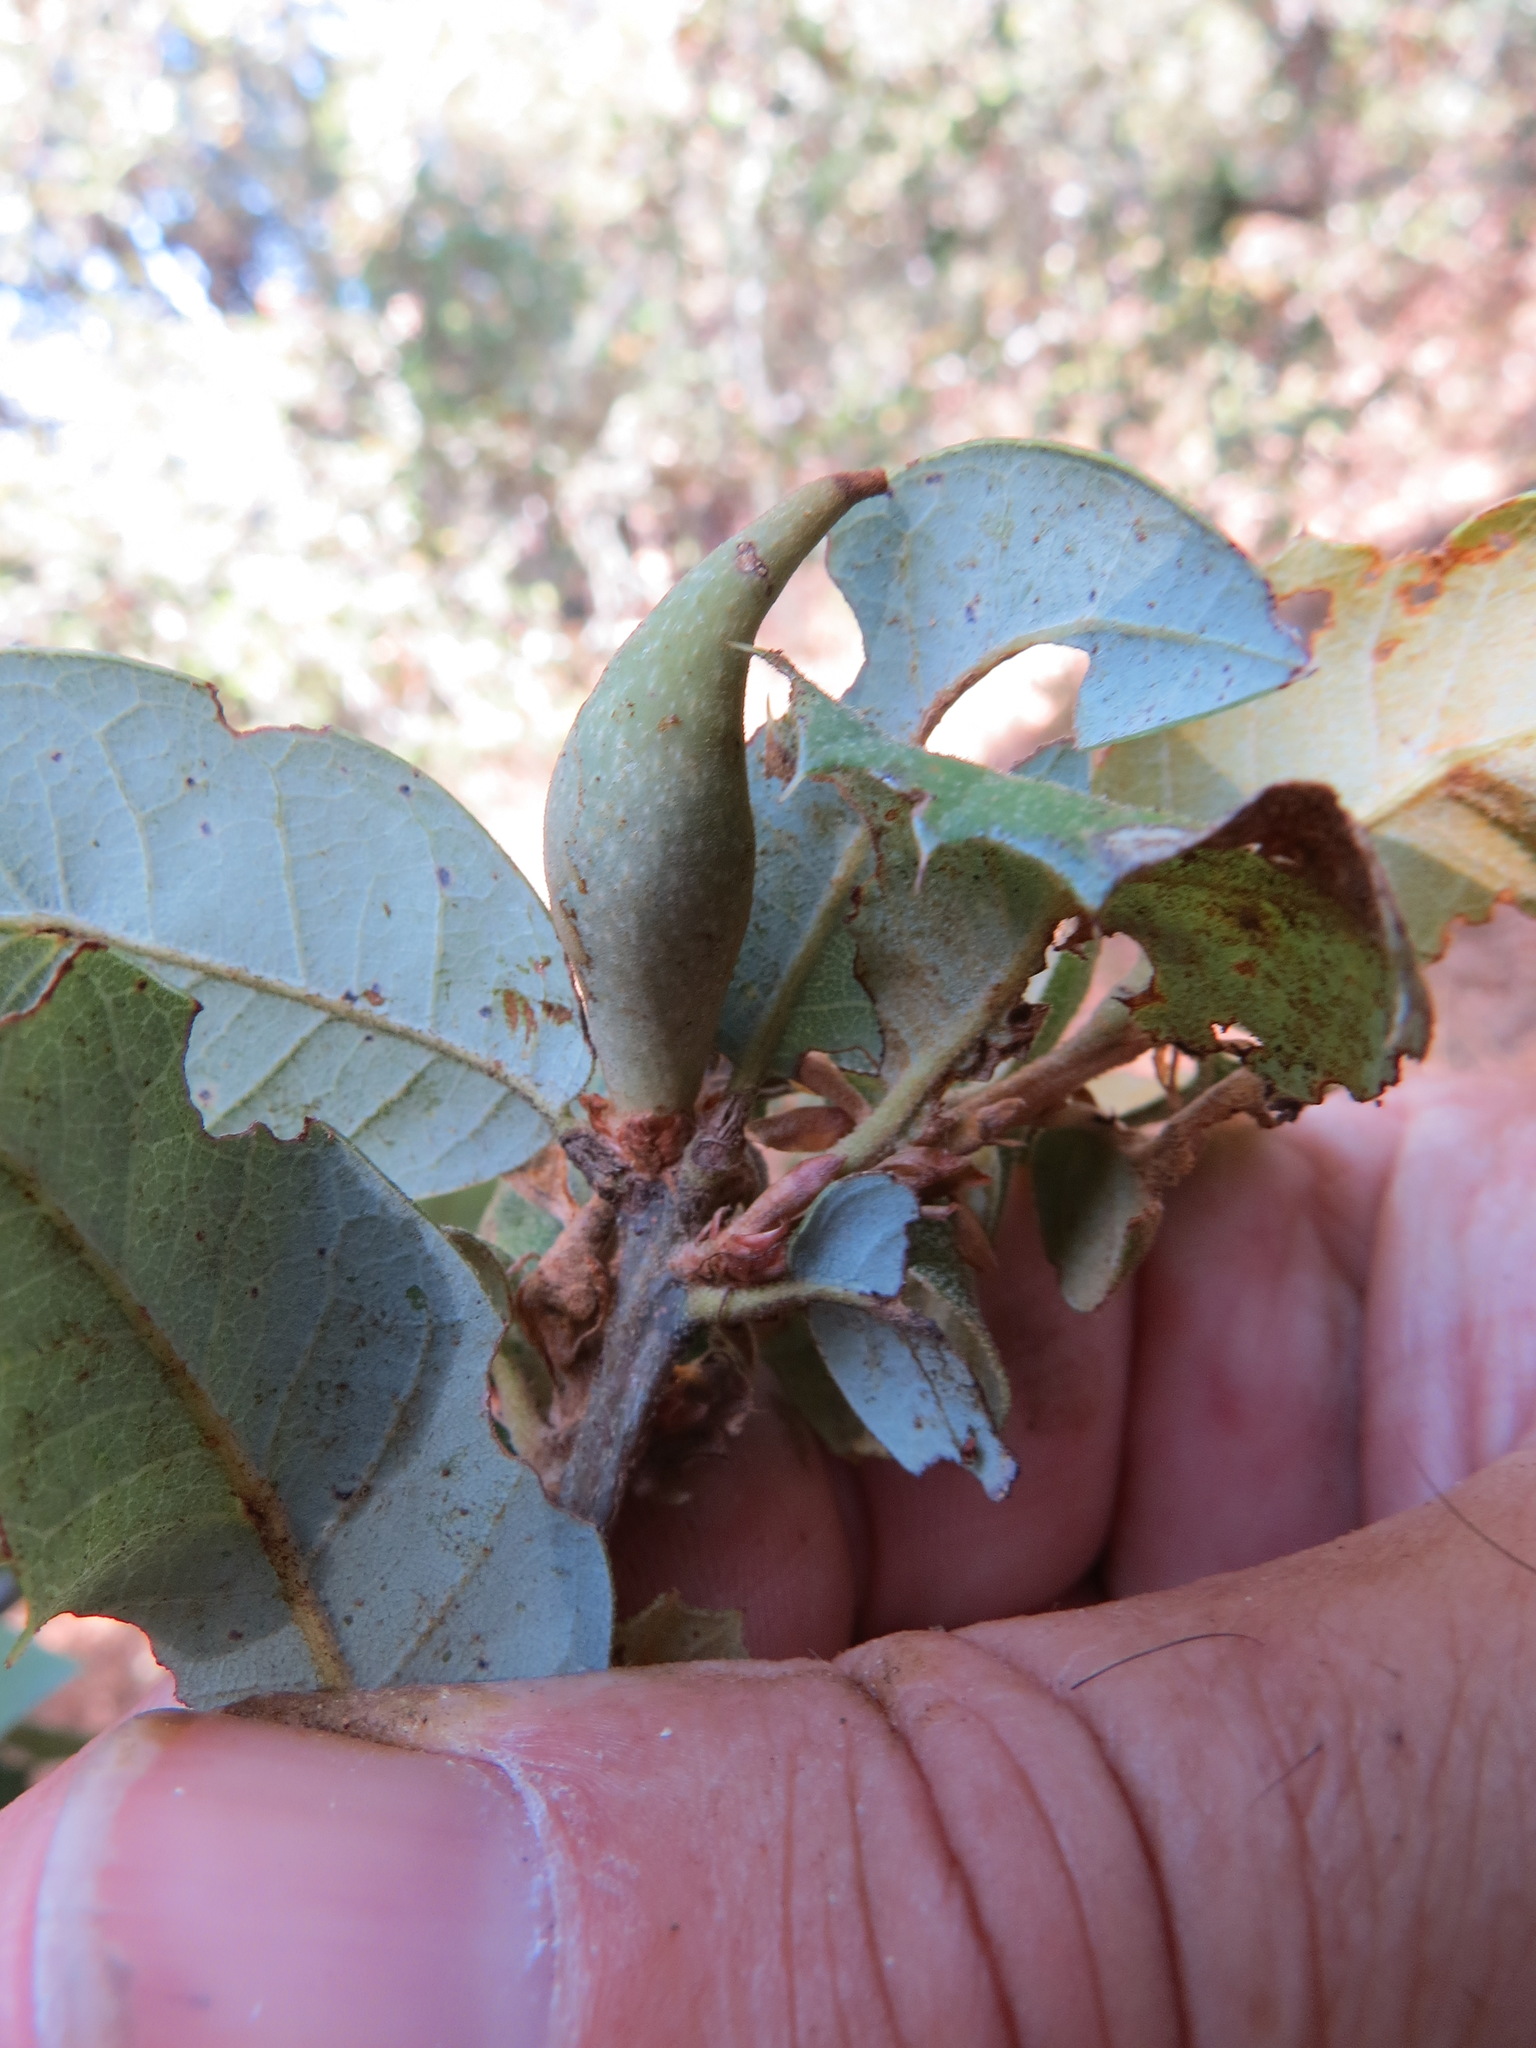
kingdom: Animalia
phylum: Arthropoda
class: Insecta
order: Hymenoptera
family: Cynipidae
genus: Heteroecus
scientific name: Heteroecus pacificus
